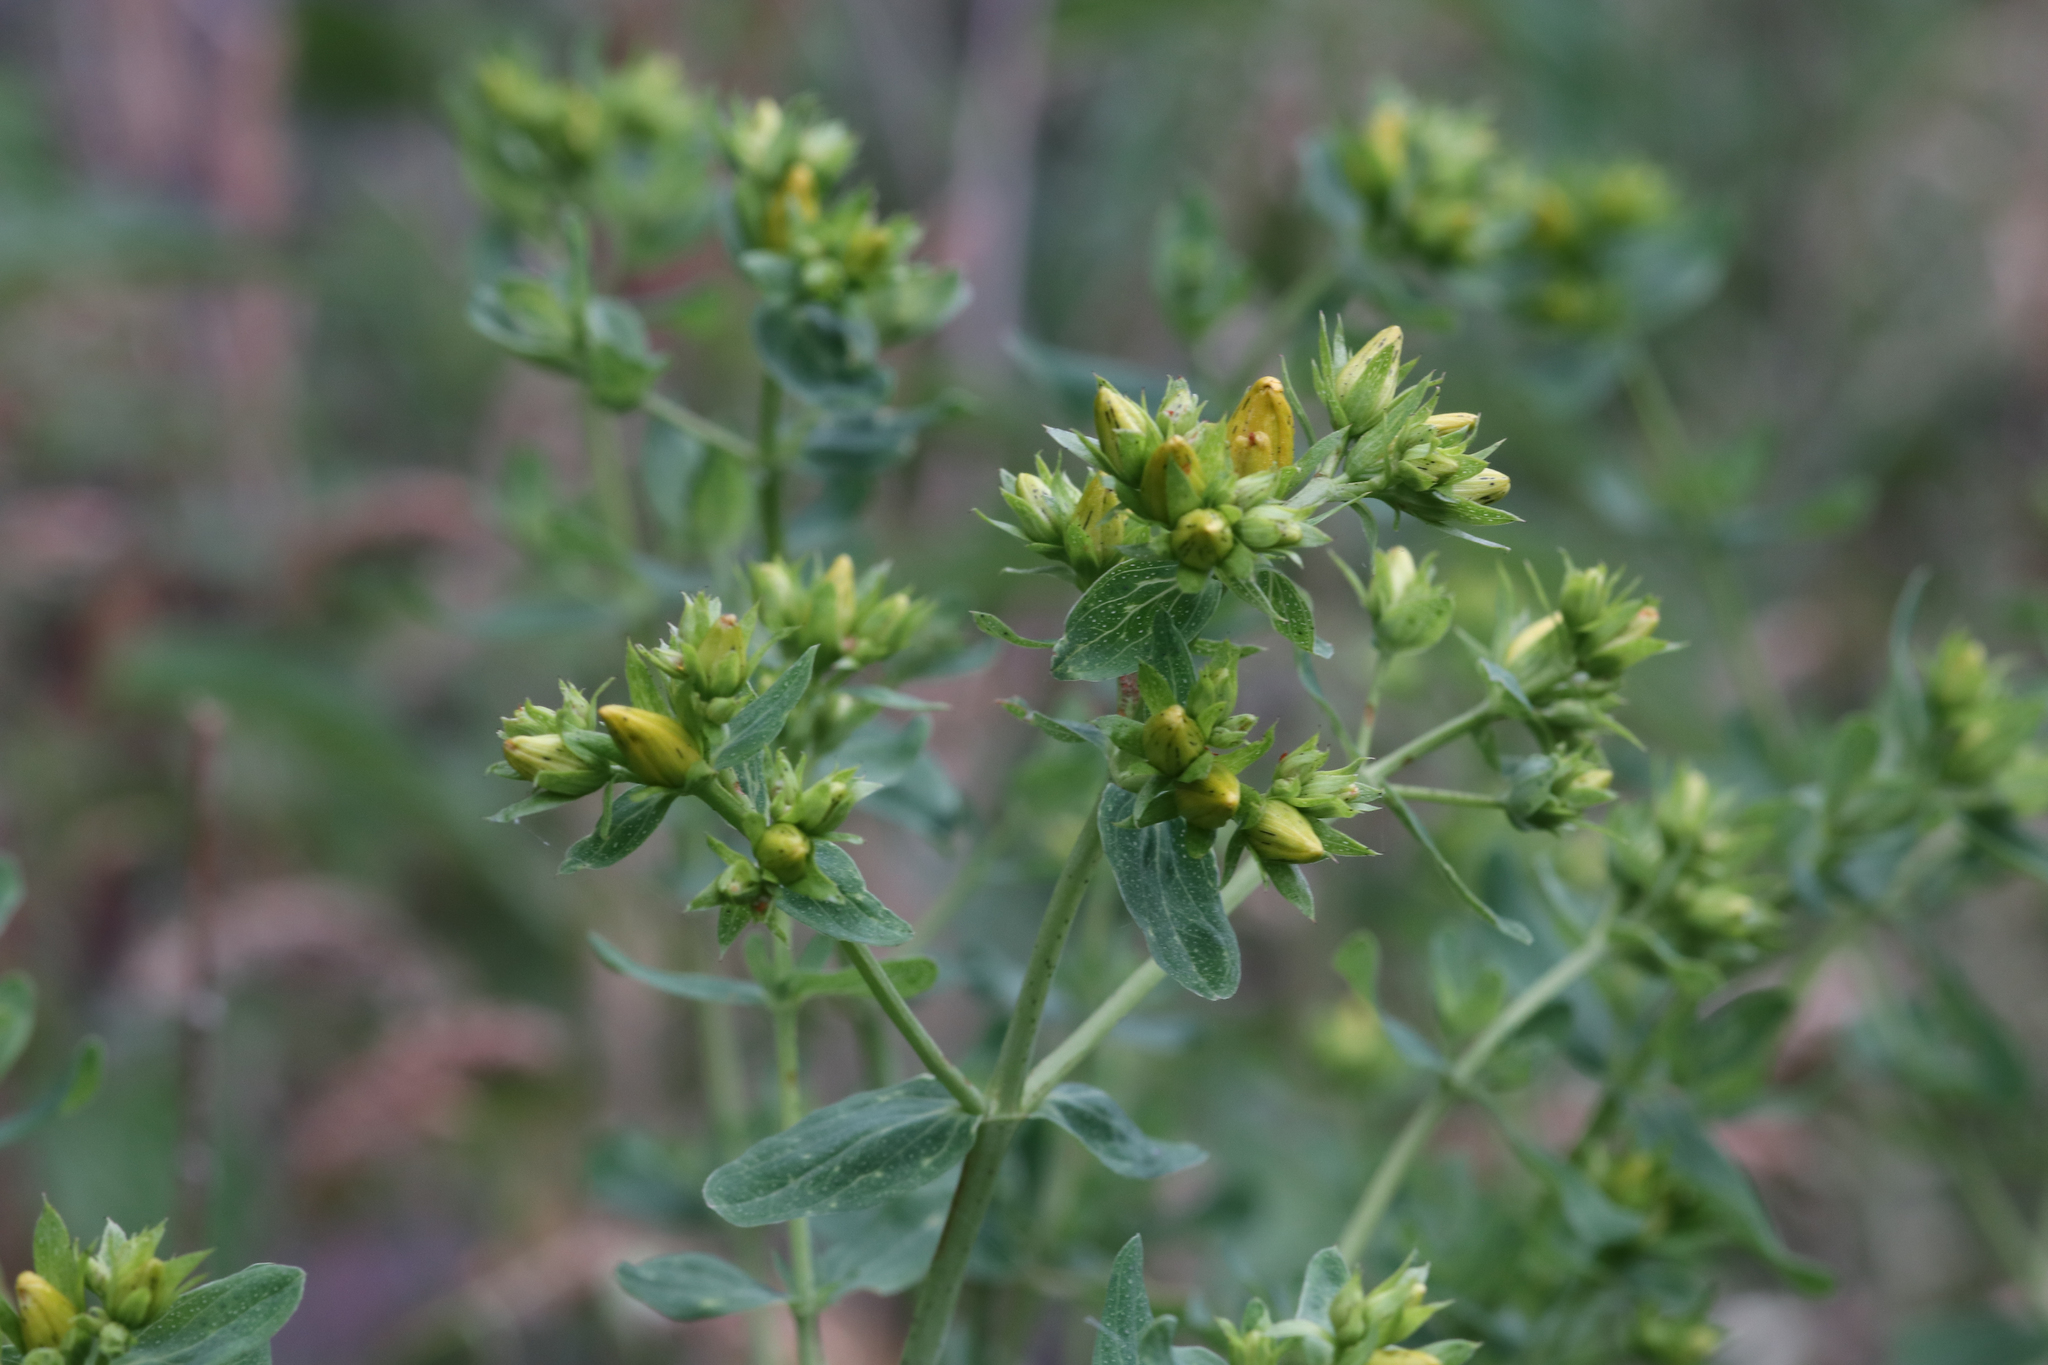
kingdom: Plantae
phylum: Tracheophyta
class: Magnoliopsida
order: Malpighiales
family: Hypericaceae
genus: Hypericum
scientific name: Hypericum perforatum
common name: Common st. johnswort
